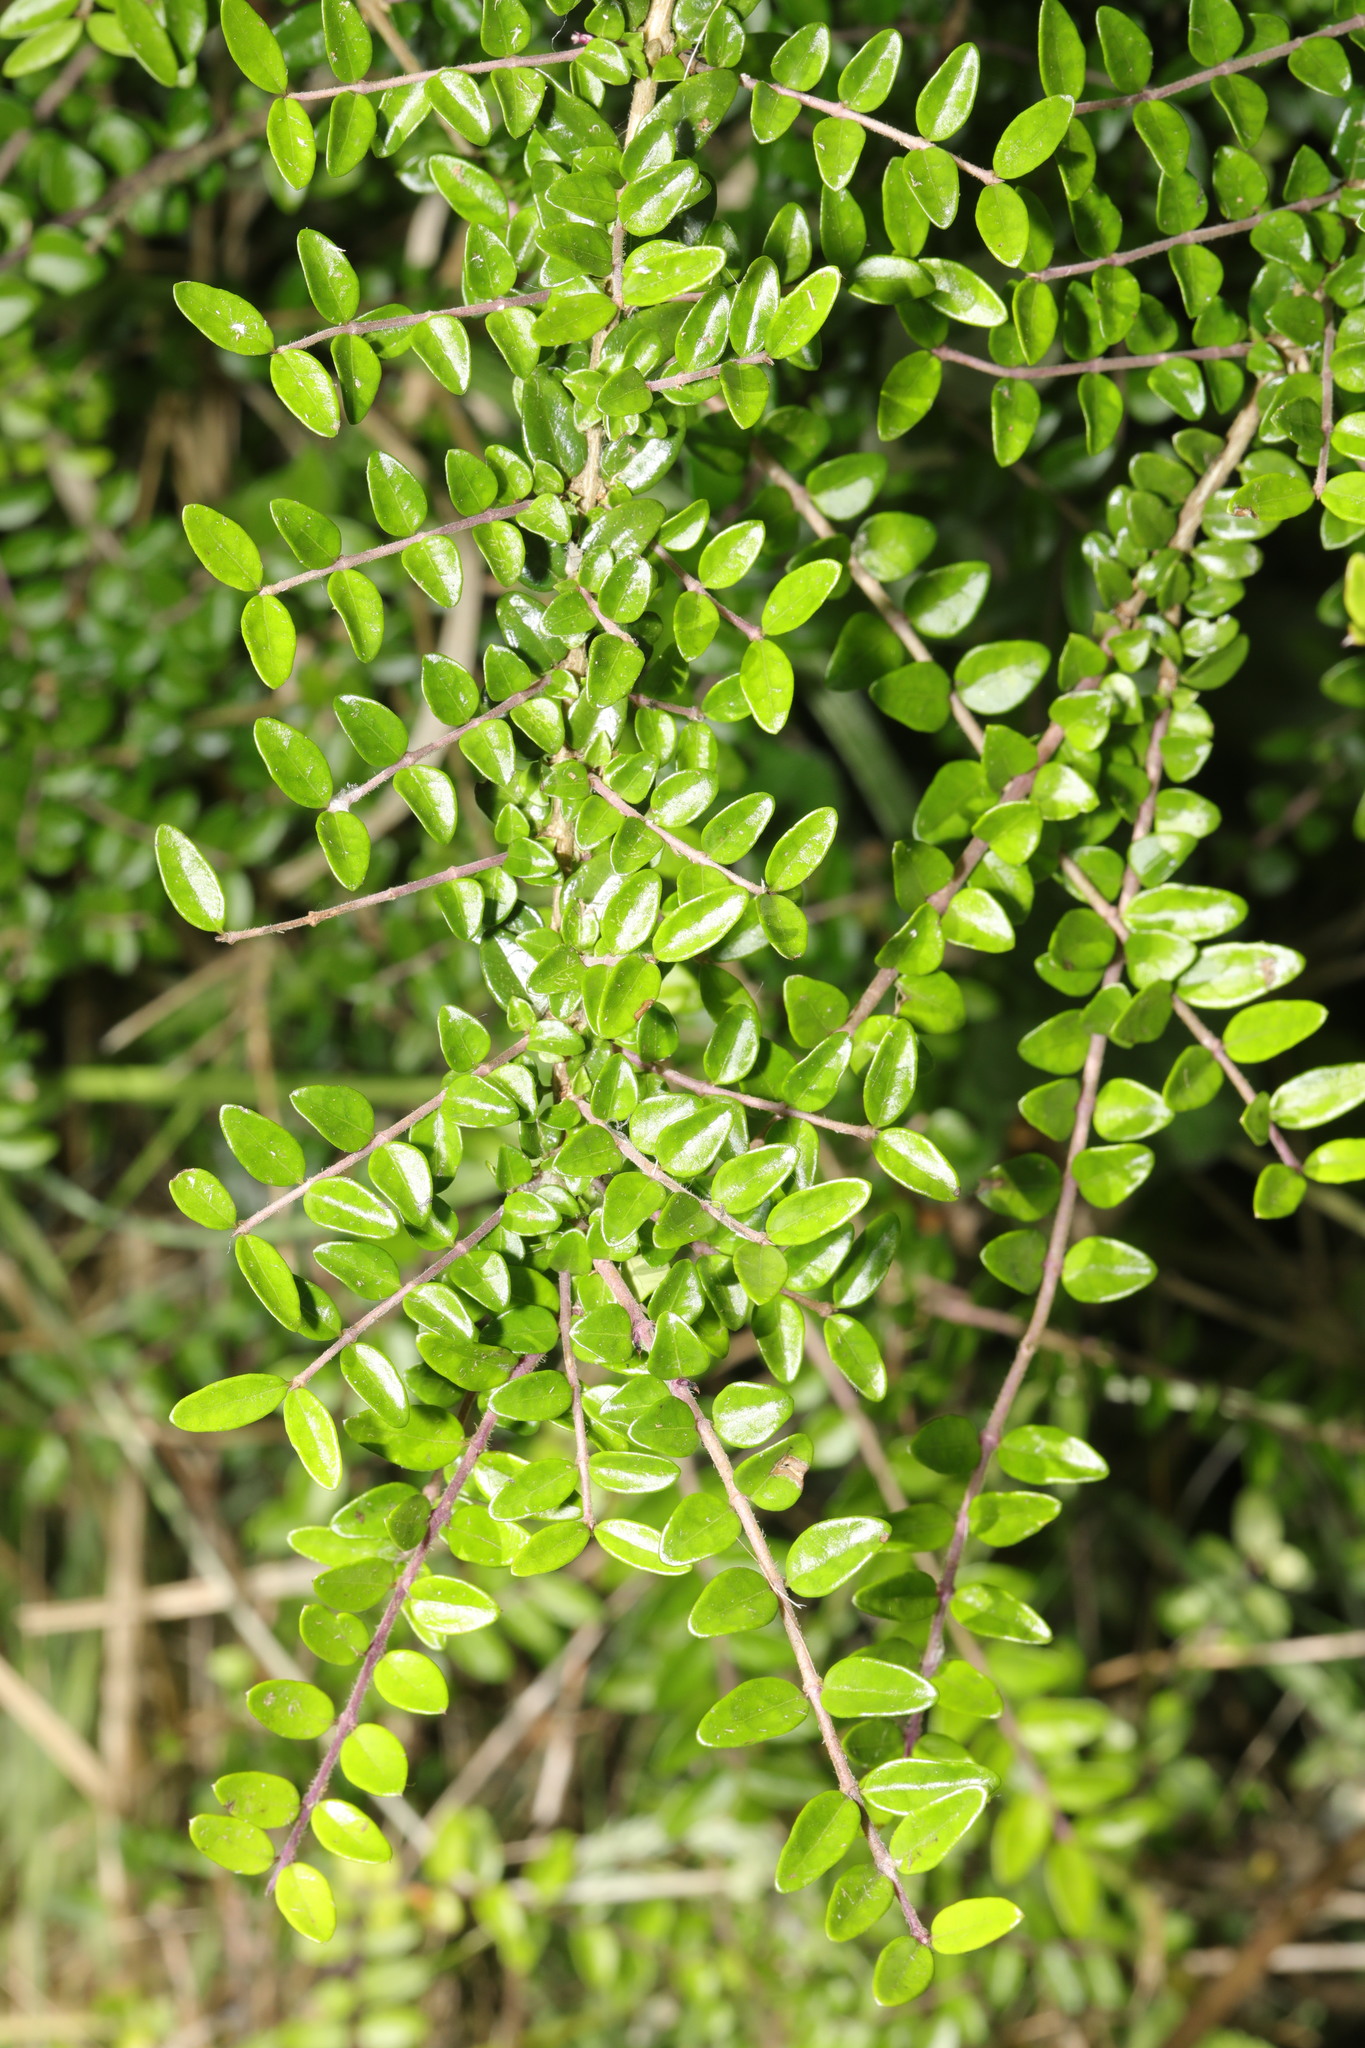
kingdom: Plantae
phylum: Tracheophyta
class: Magnoliopsida
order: Dipsacales
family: Caprifoliaceae
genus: Lonicera
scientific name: Lonicera ligustrina
